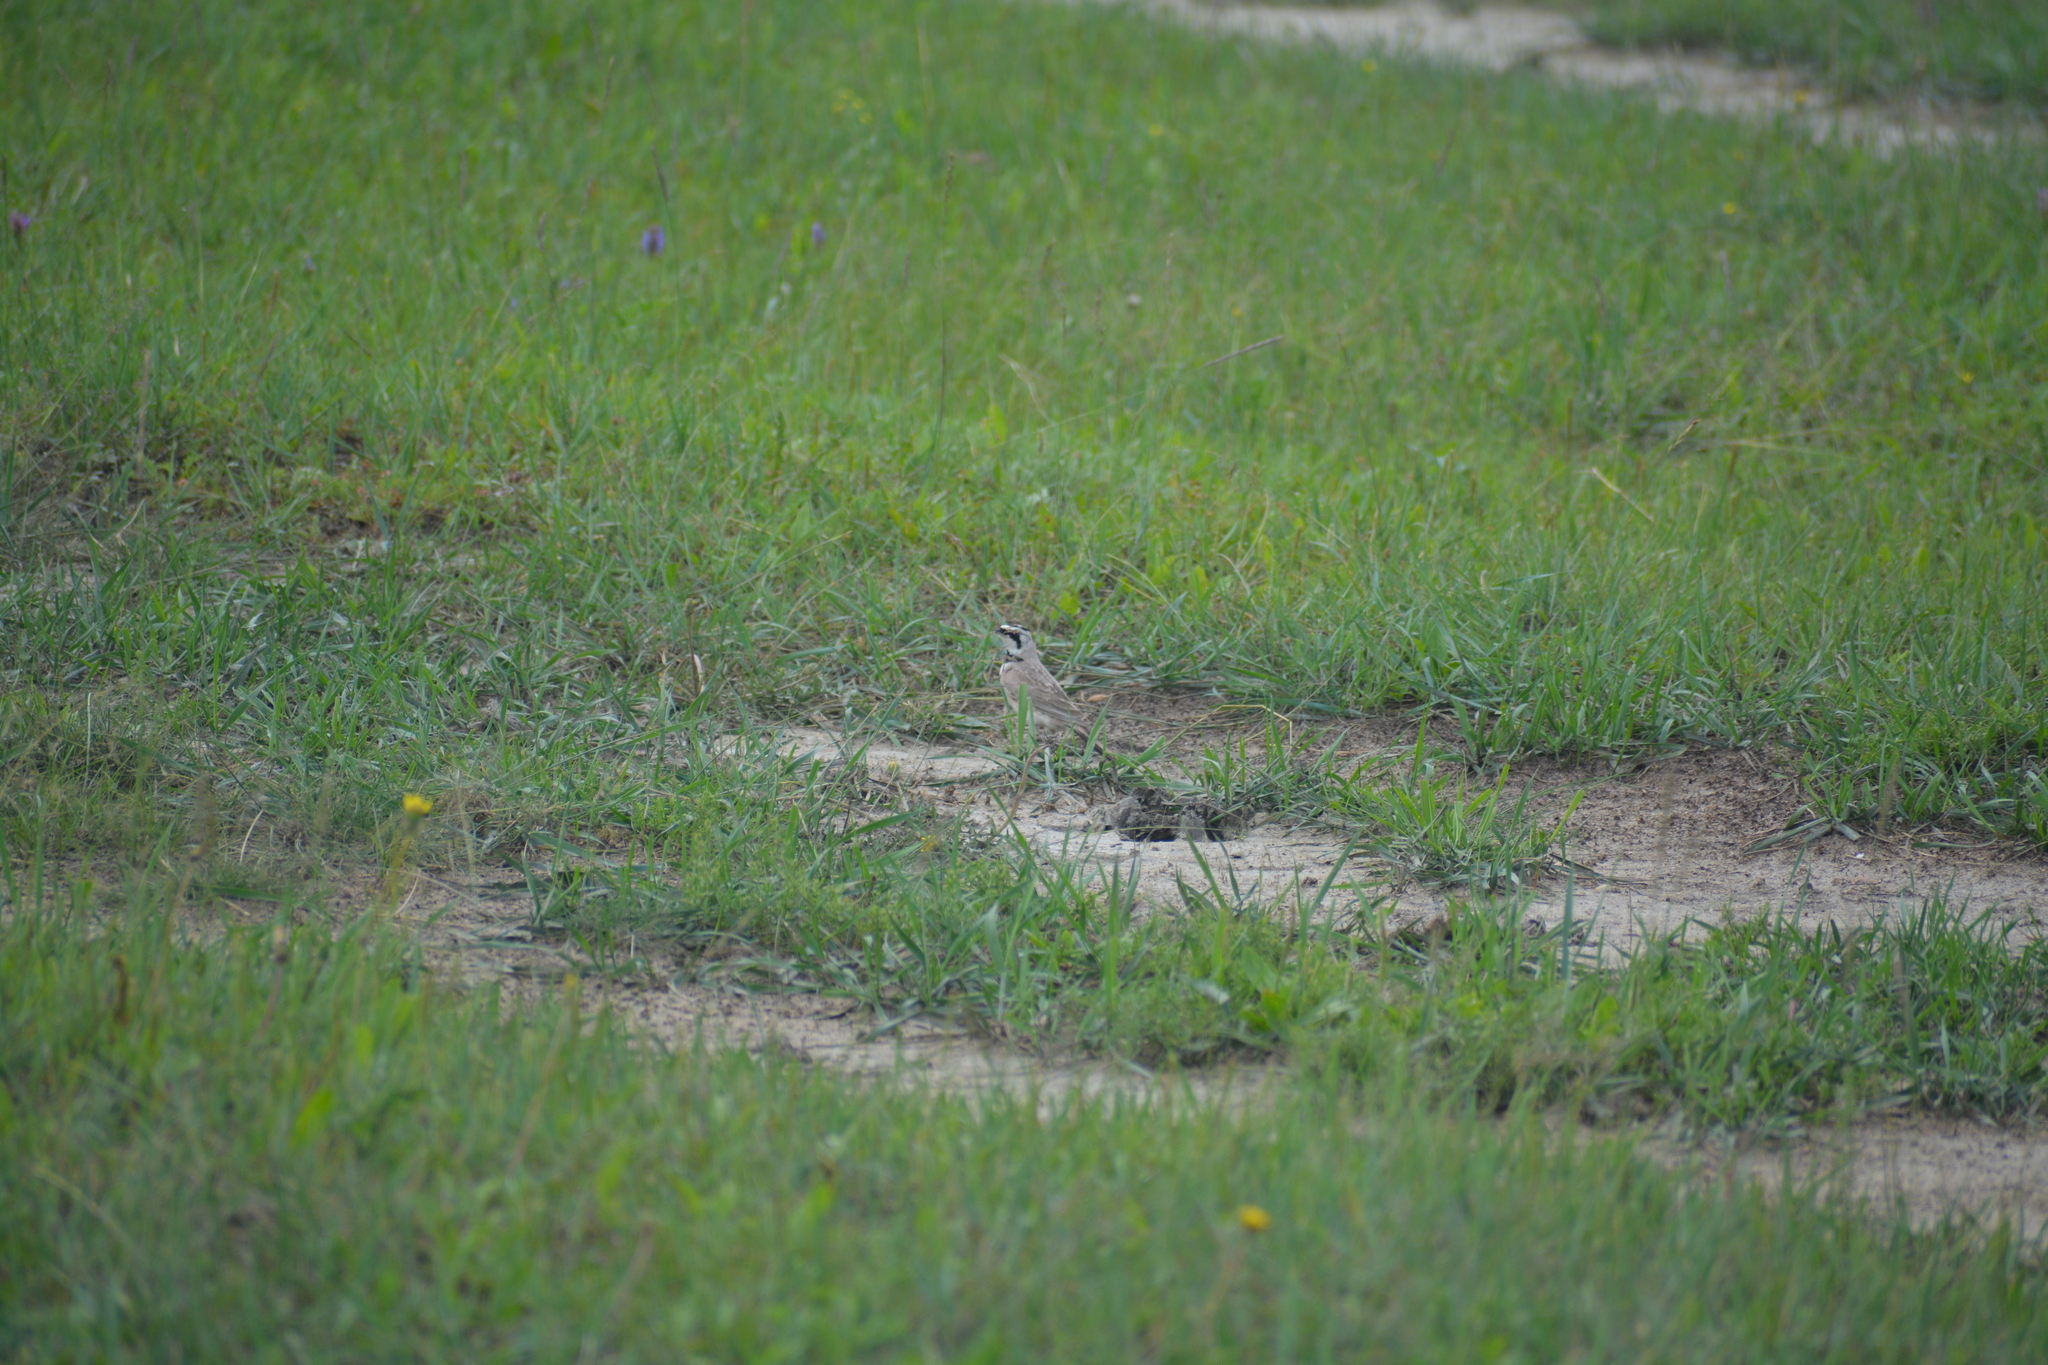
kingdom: Animalia
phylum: Chordata
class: Aves
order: Passeriformes
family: Alaudidae
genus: Eremophila
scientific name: Eremophila alpestris
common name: Horned lark
